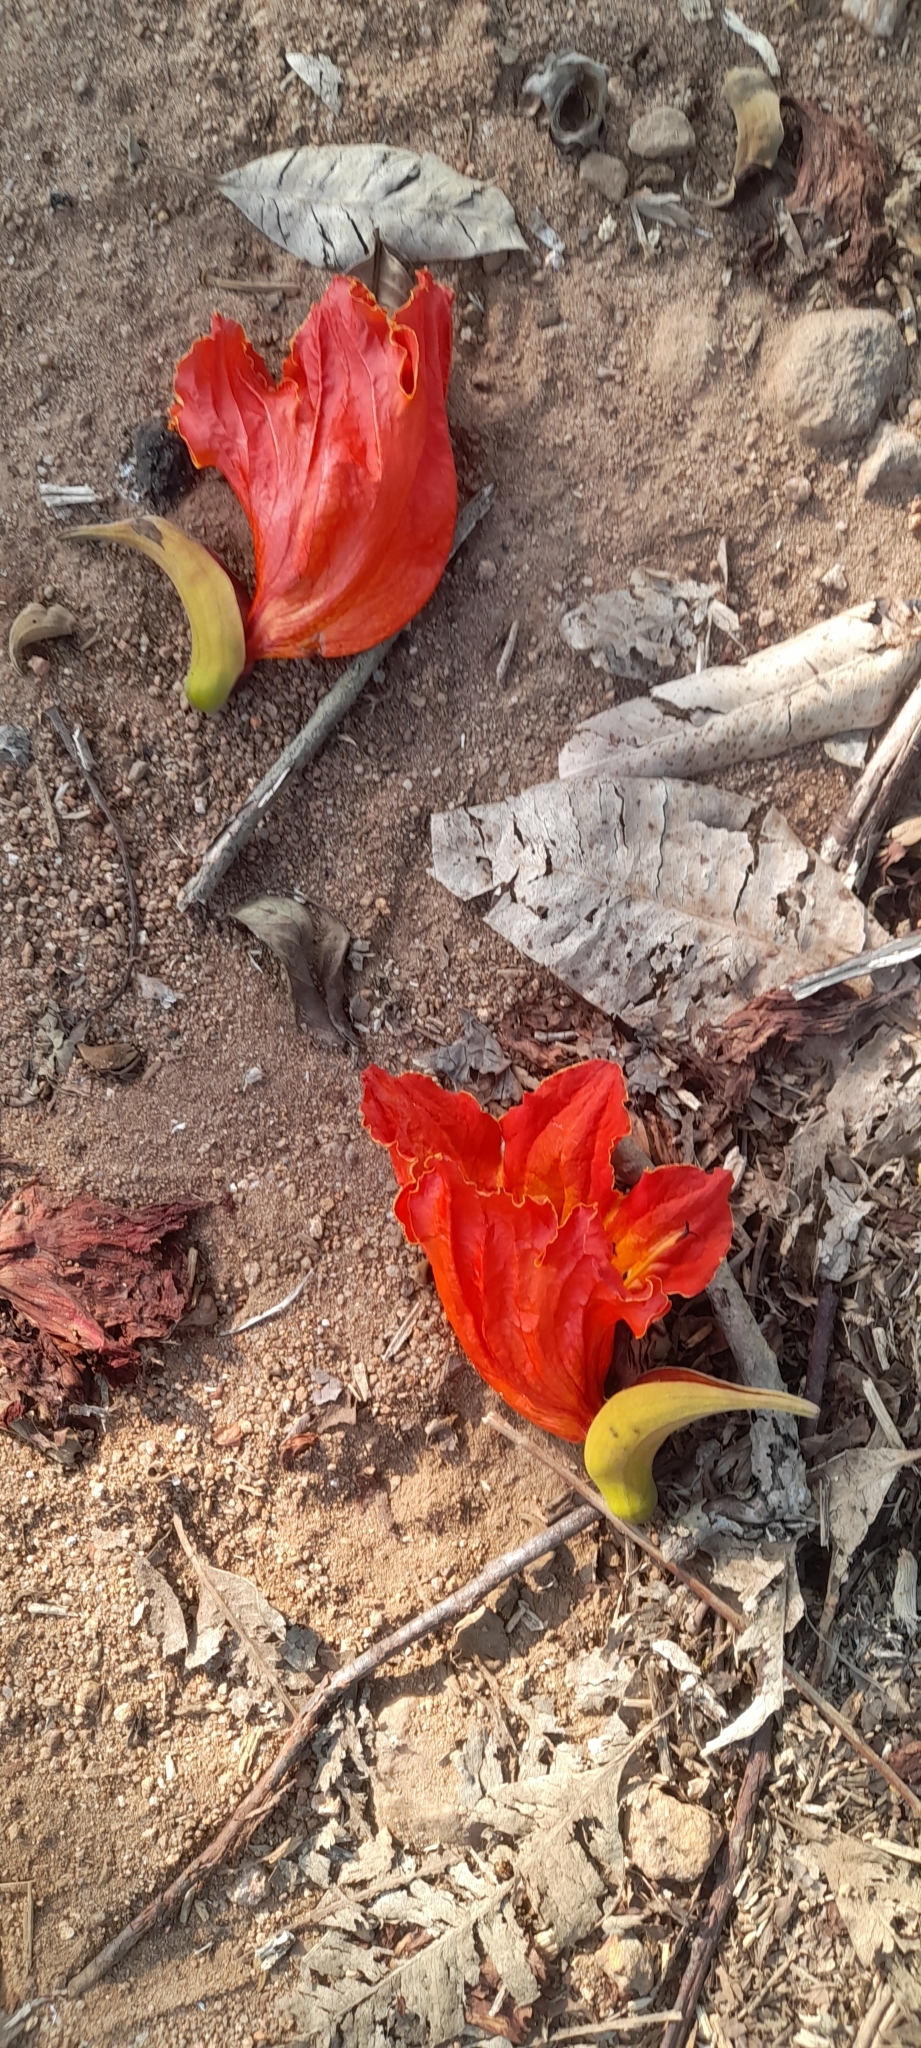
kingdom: Plantae
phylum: Tracheophyta
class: Magnoliopsida
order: Lamiales
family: Bignoniaceae
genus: Spathodea
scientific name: Spathodea campanulata
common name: African tuliptree
